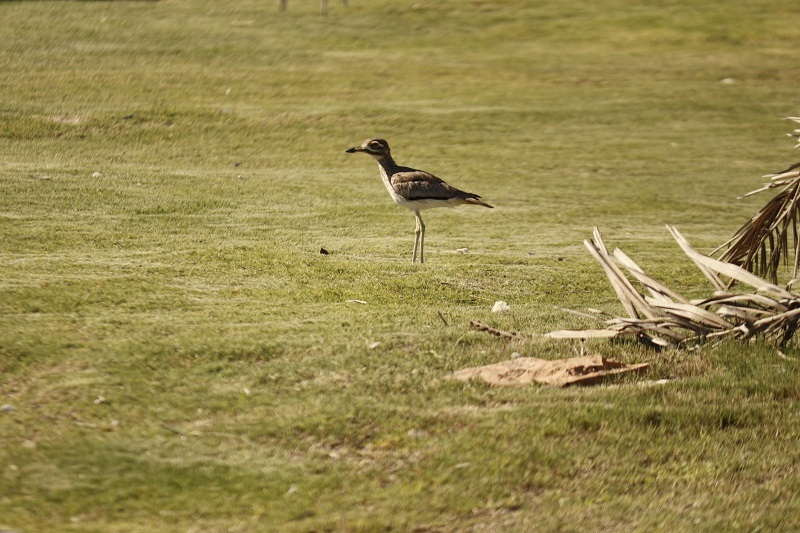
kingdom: Animalia
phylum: Chordata
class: Aves
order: Charadriiformes
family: Burhinidae
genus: Burhinus
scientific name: Burhinus vermiculatus
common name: Water thick-knee
